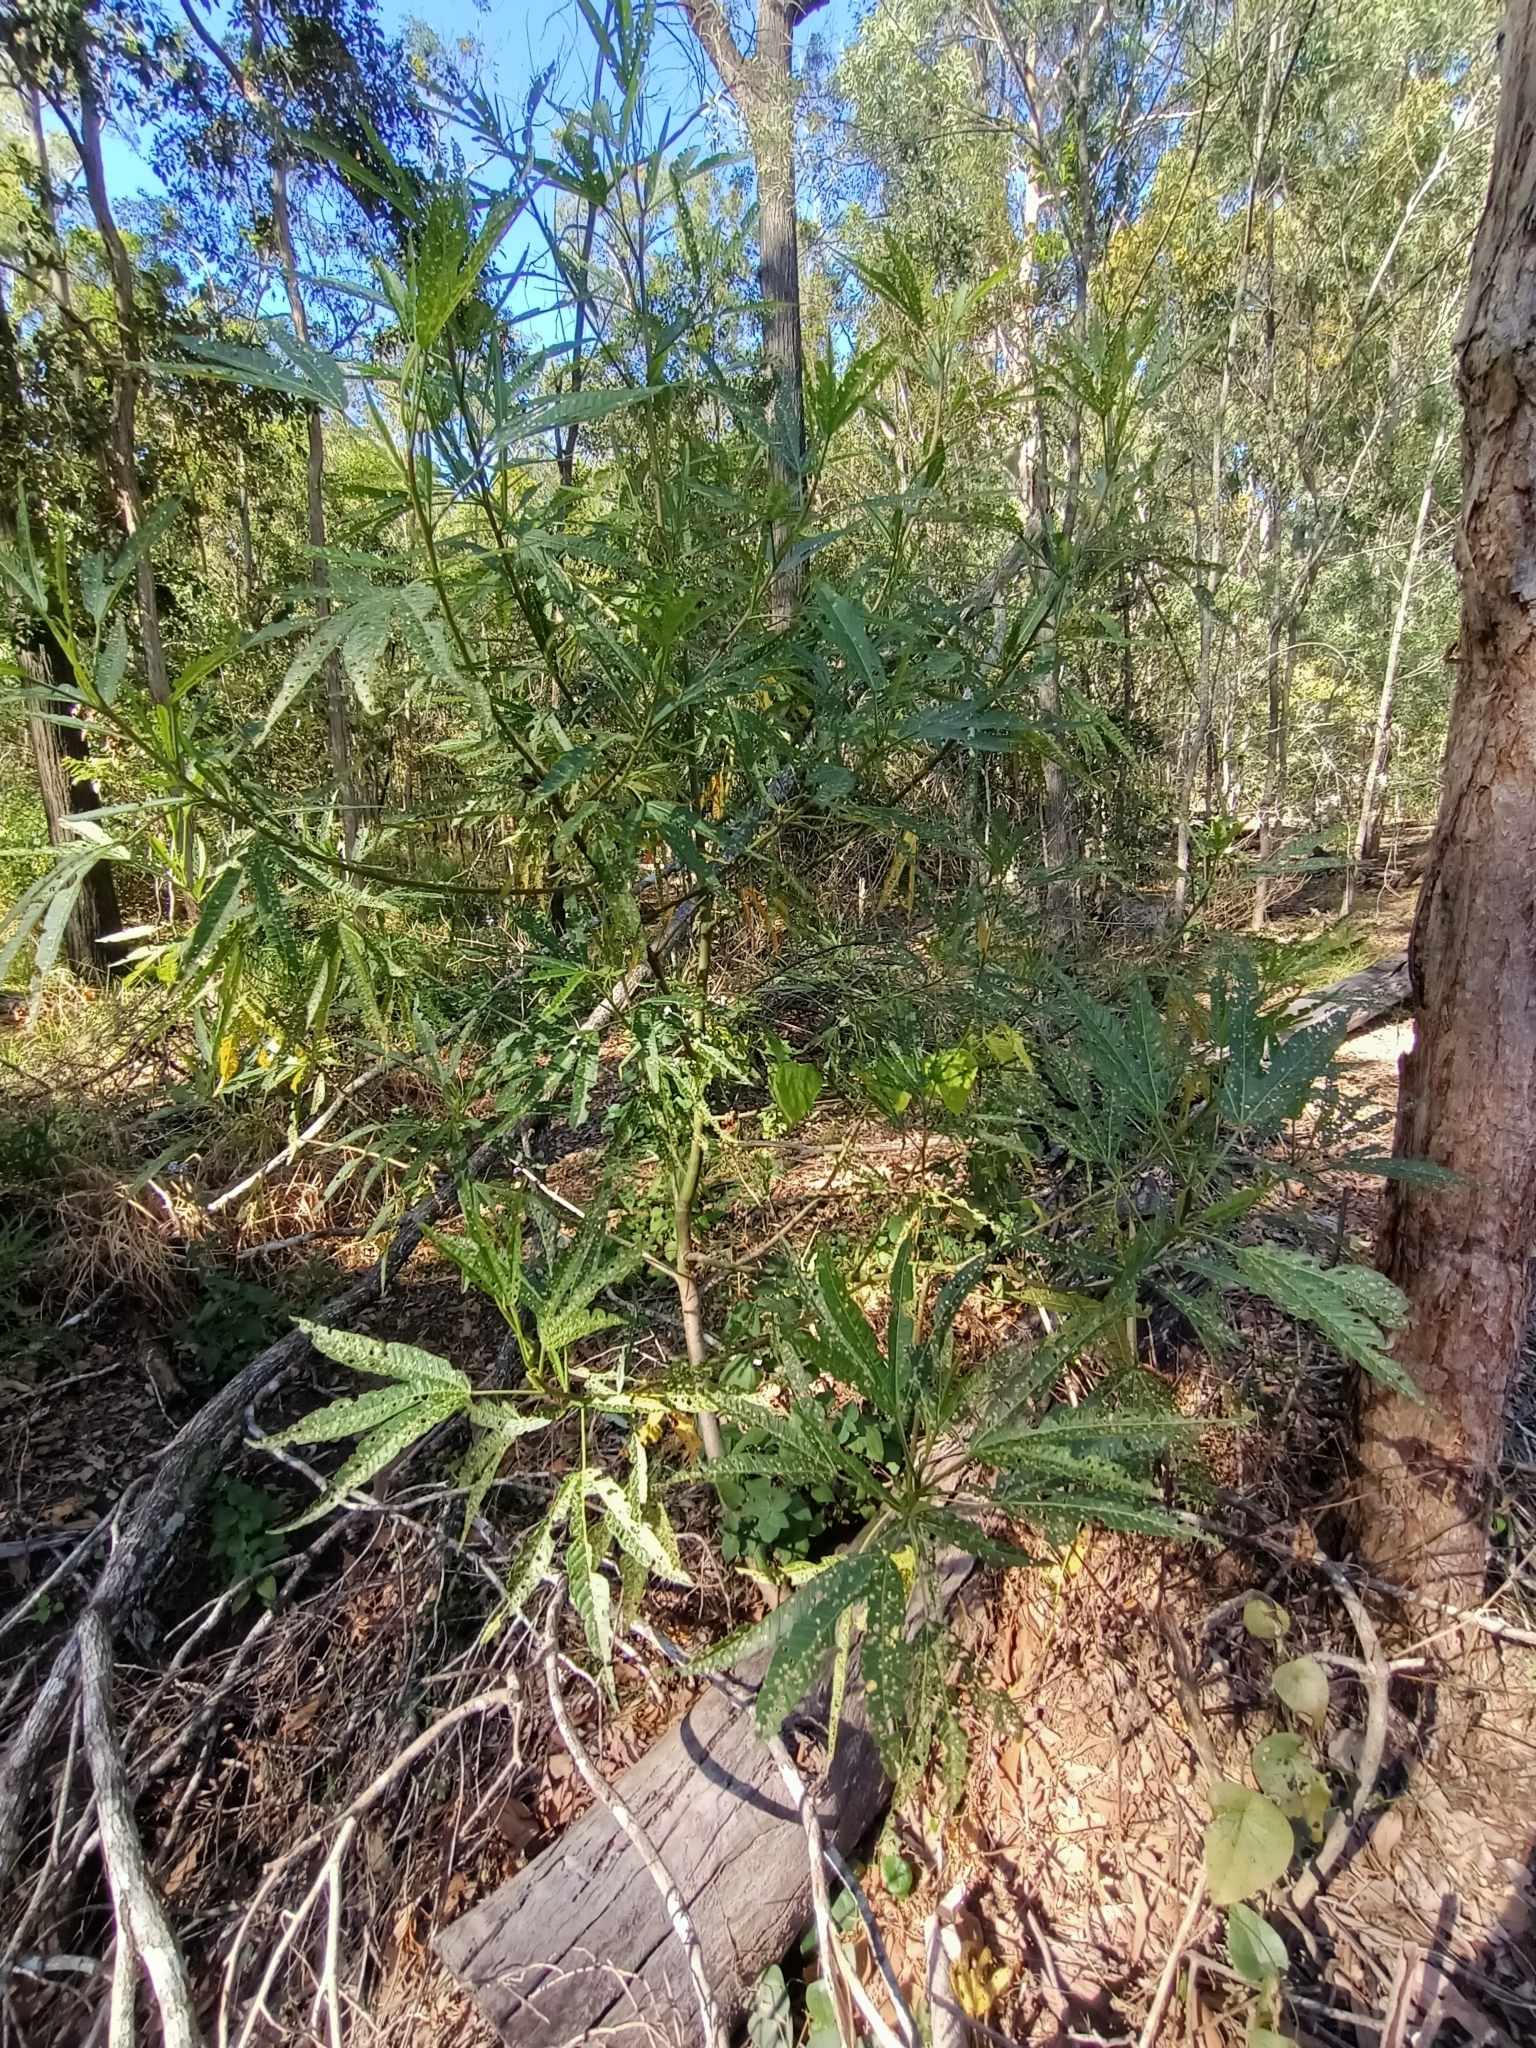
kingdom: Plantae
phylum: Tracheophyta
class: Magnoliopsida
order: Malvales
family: Malvaceae
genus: Hibiscus
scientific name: Hibiscus heterophyllus
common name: Queensland-sorrel
